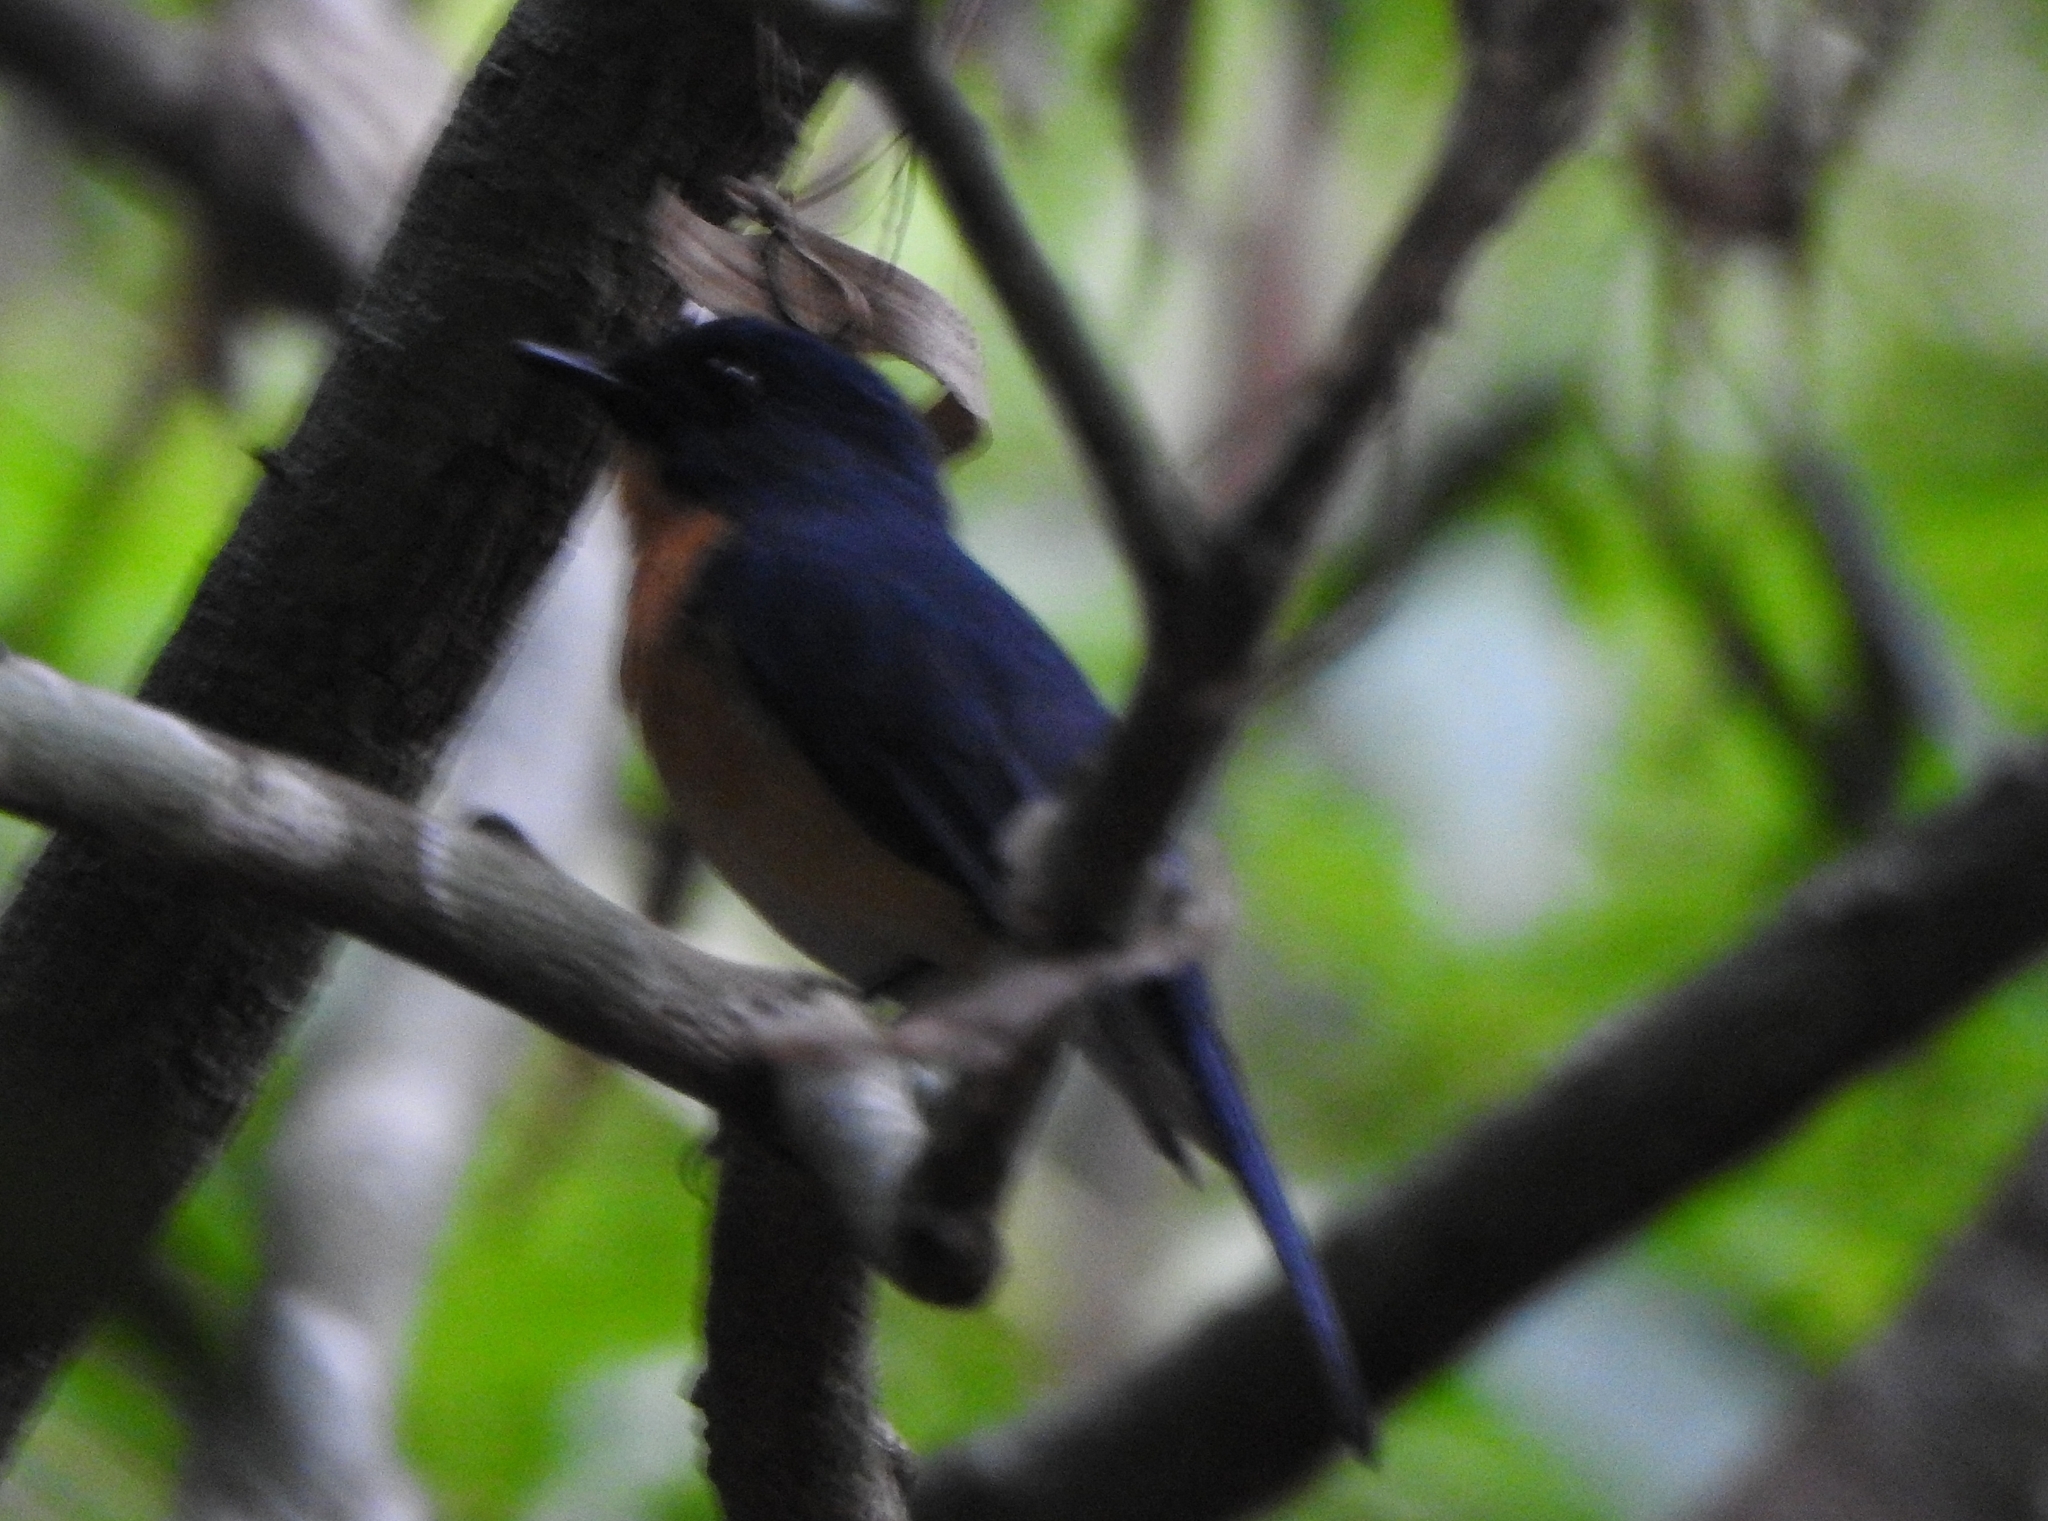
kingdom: Animalia
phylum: Chordata
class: Aves
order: Passeriformes
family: Muscicapidae
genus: Cyornis
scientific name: Cyornis tickelliae
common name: Tickell's blue flycatcher
